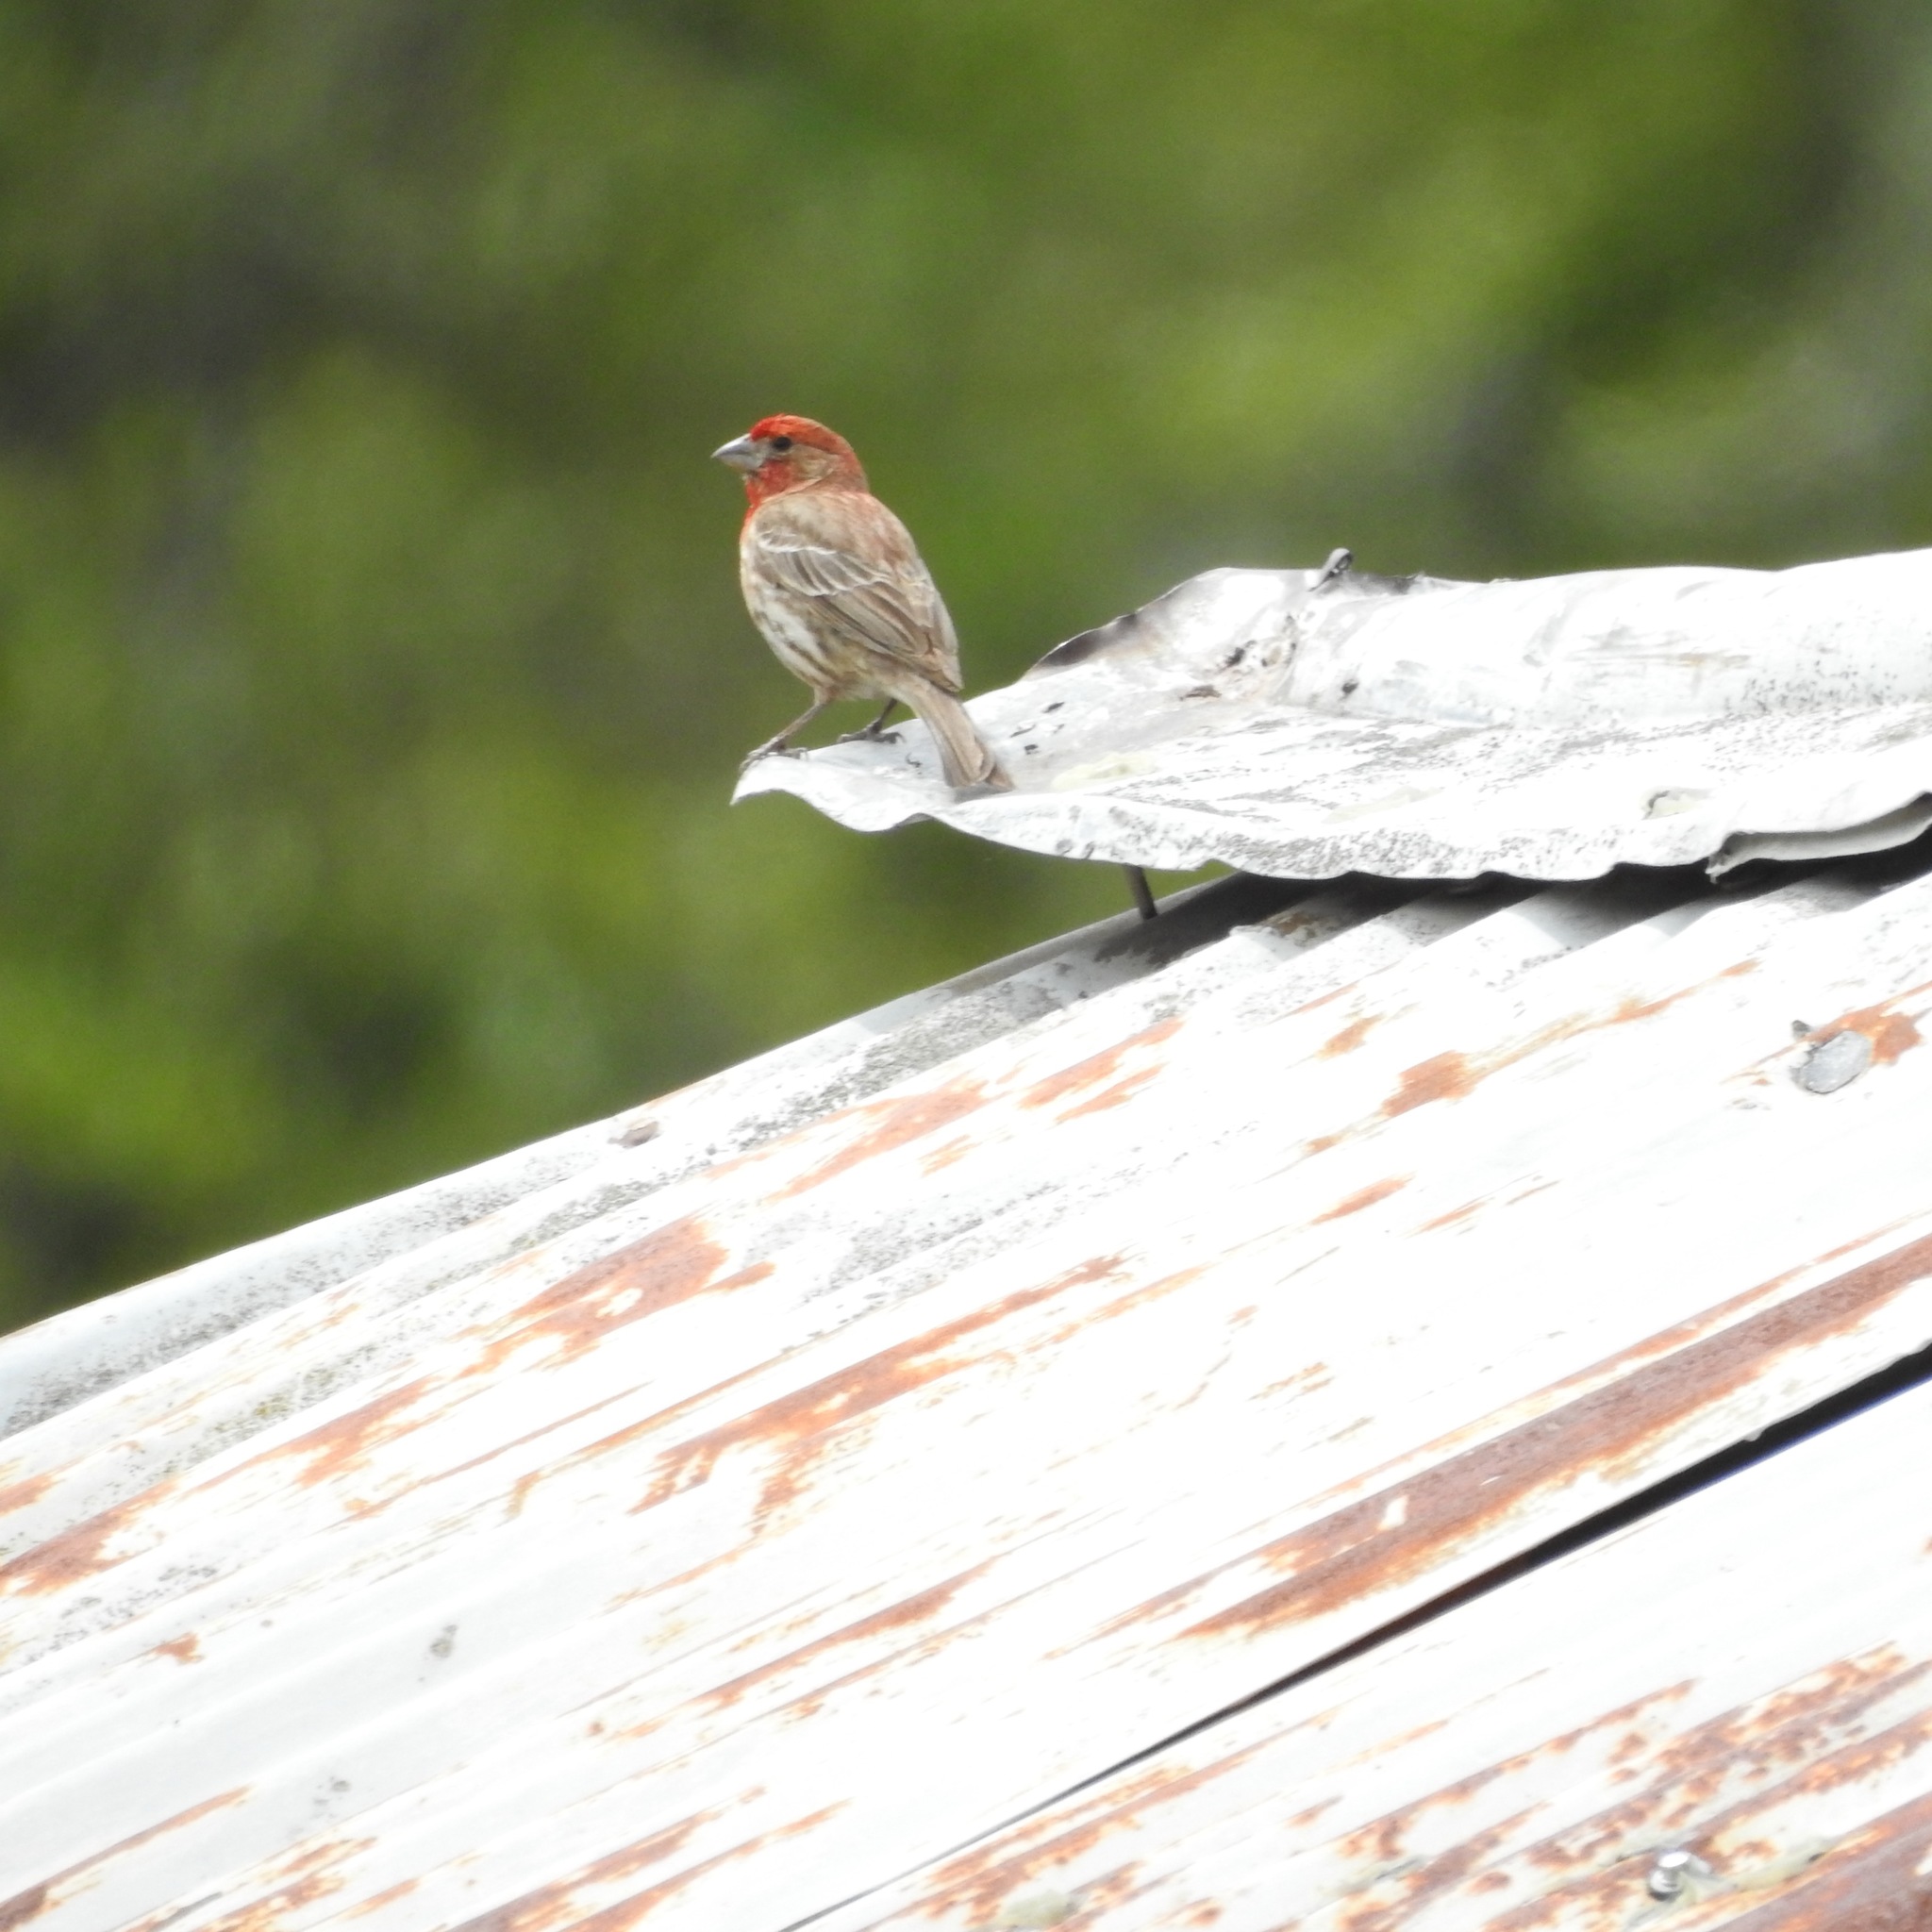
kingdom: Animalia
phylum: Chordata
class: Aves
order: Passeriformes
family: Fringillidae
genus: Haemorhous
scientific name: Haemorhous mexicanus
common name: House finch
